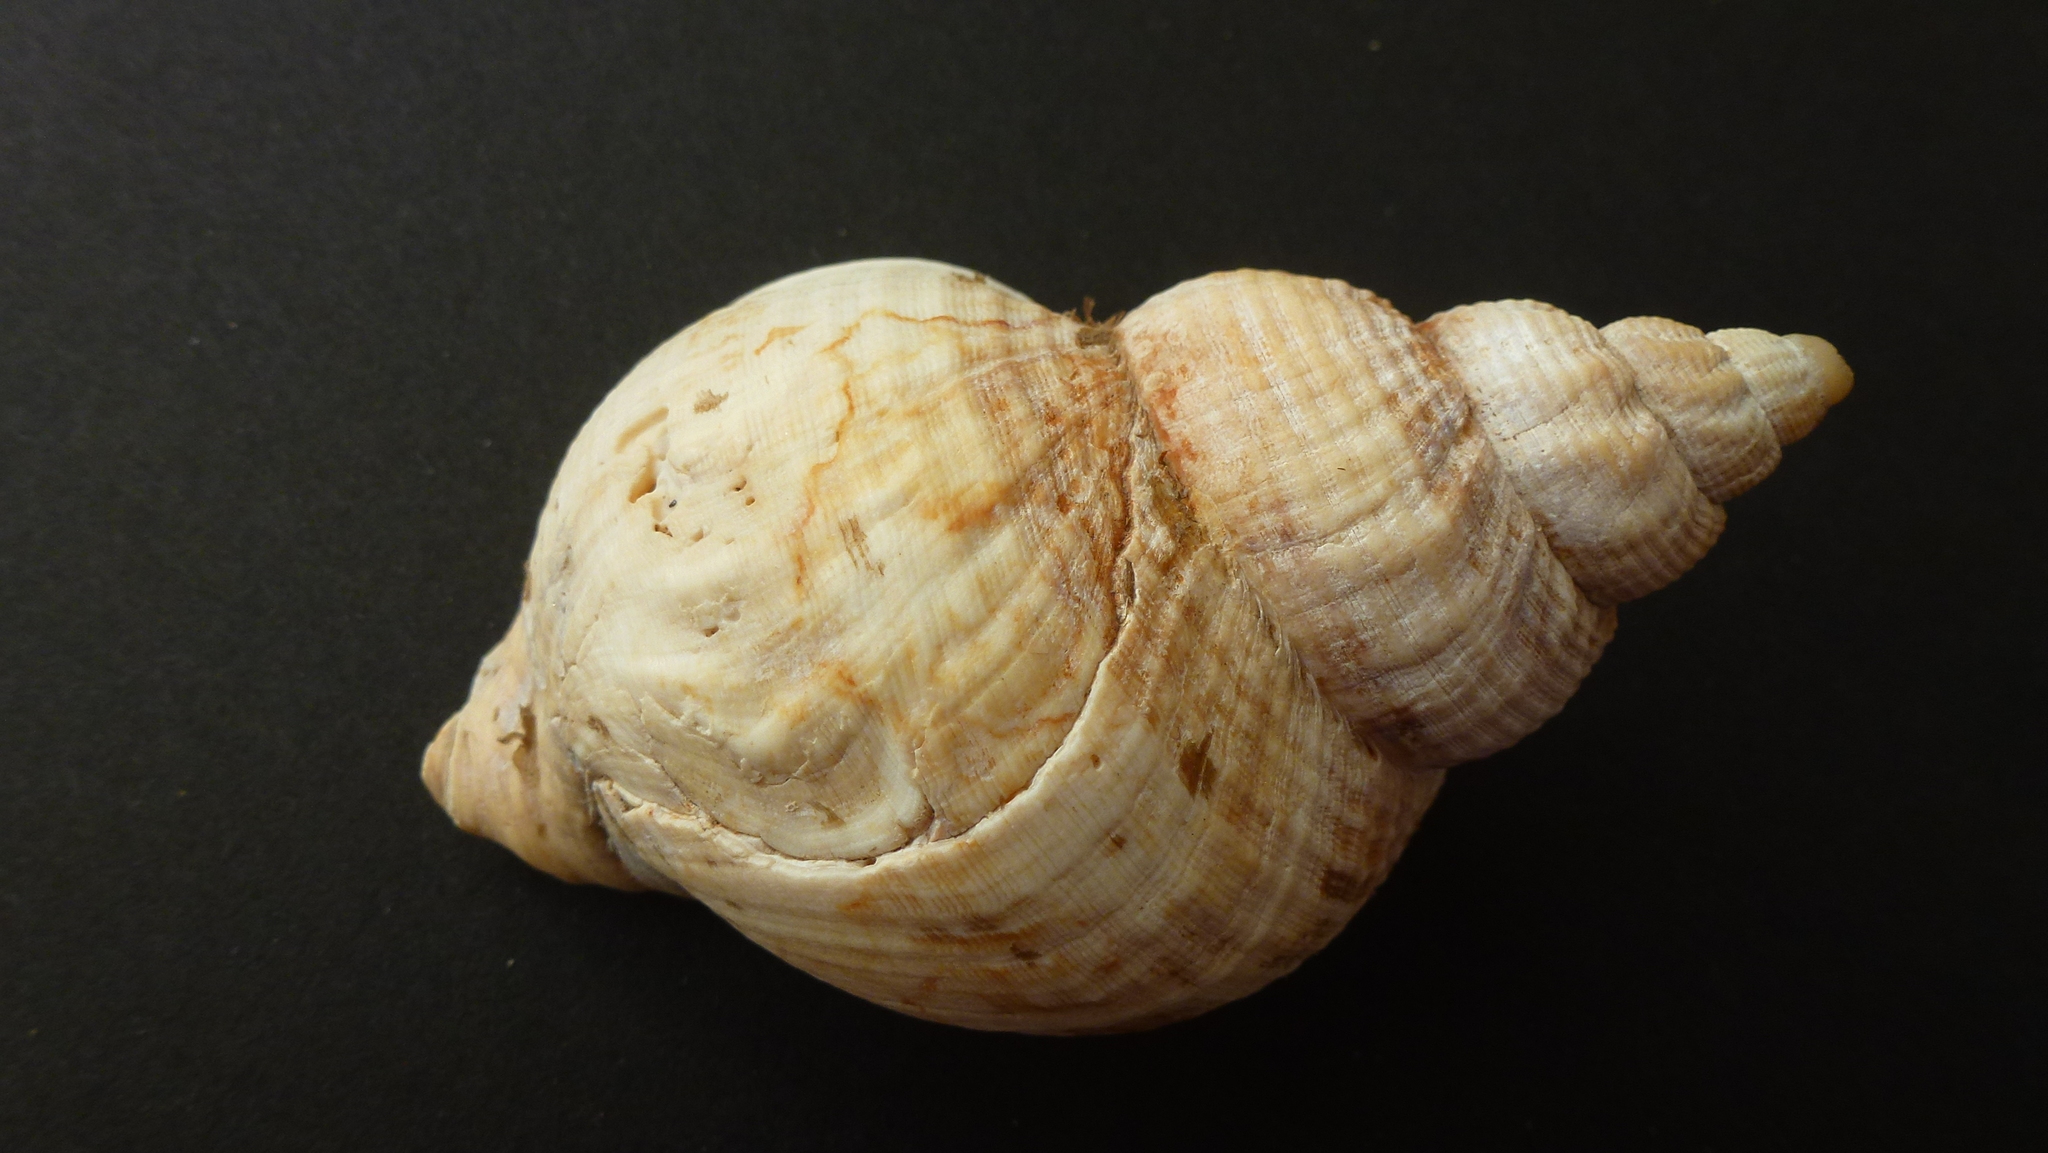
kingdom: Animalia
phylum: Mollusca
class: Gastropoda
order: Neogastropoda
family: Buccinidae
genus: Buccinum
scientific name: Buccinum undatum
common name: Common whelk
